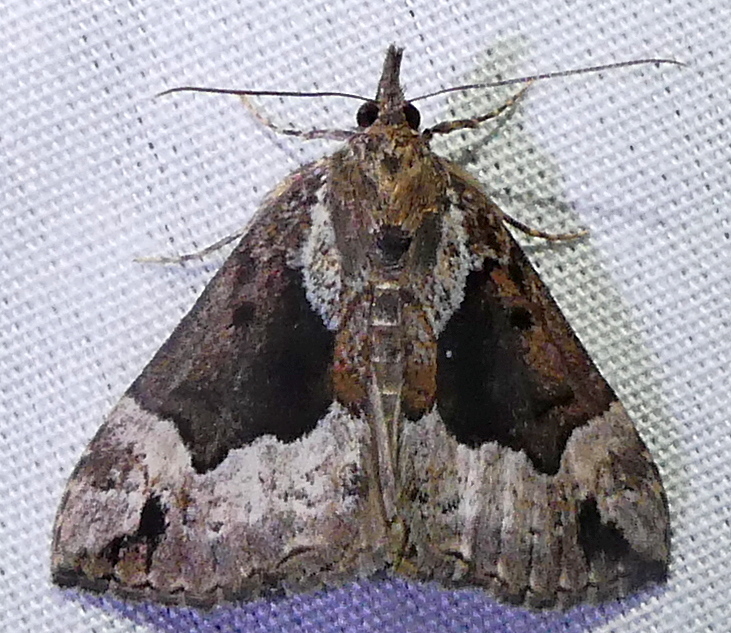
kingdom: Animalia
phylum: Arthropoda
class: Insecta
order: Lepidoptera
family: Erebidae
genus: Hypena
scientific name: Hypena palparia
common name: Mottled bomolocha moth
